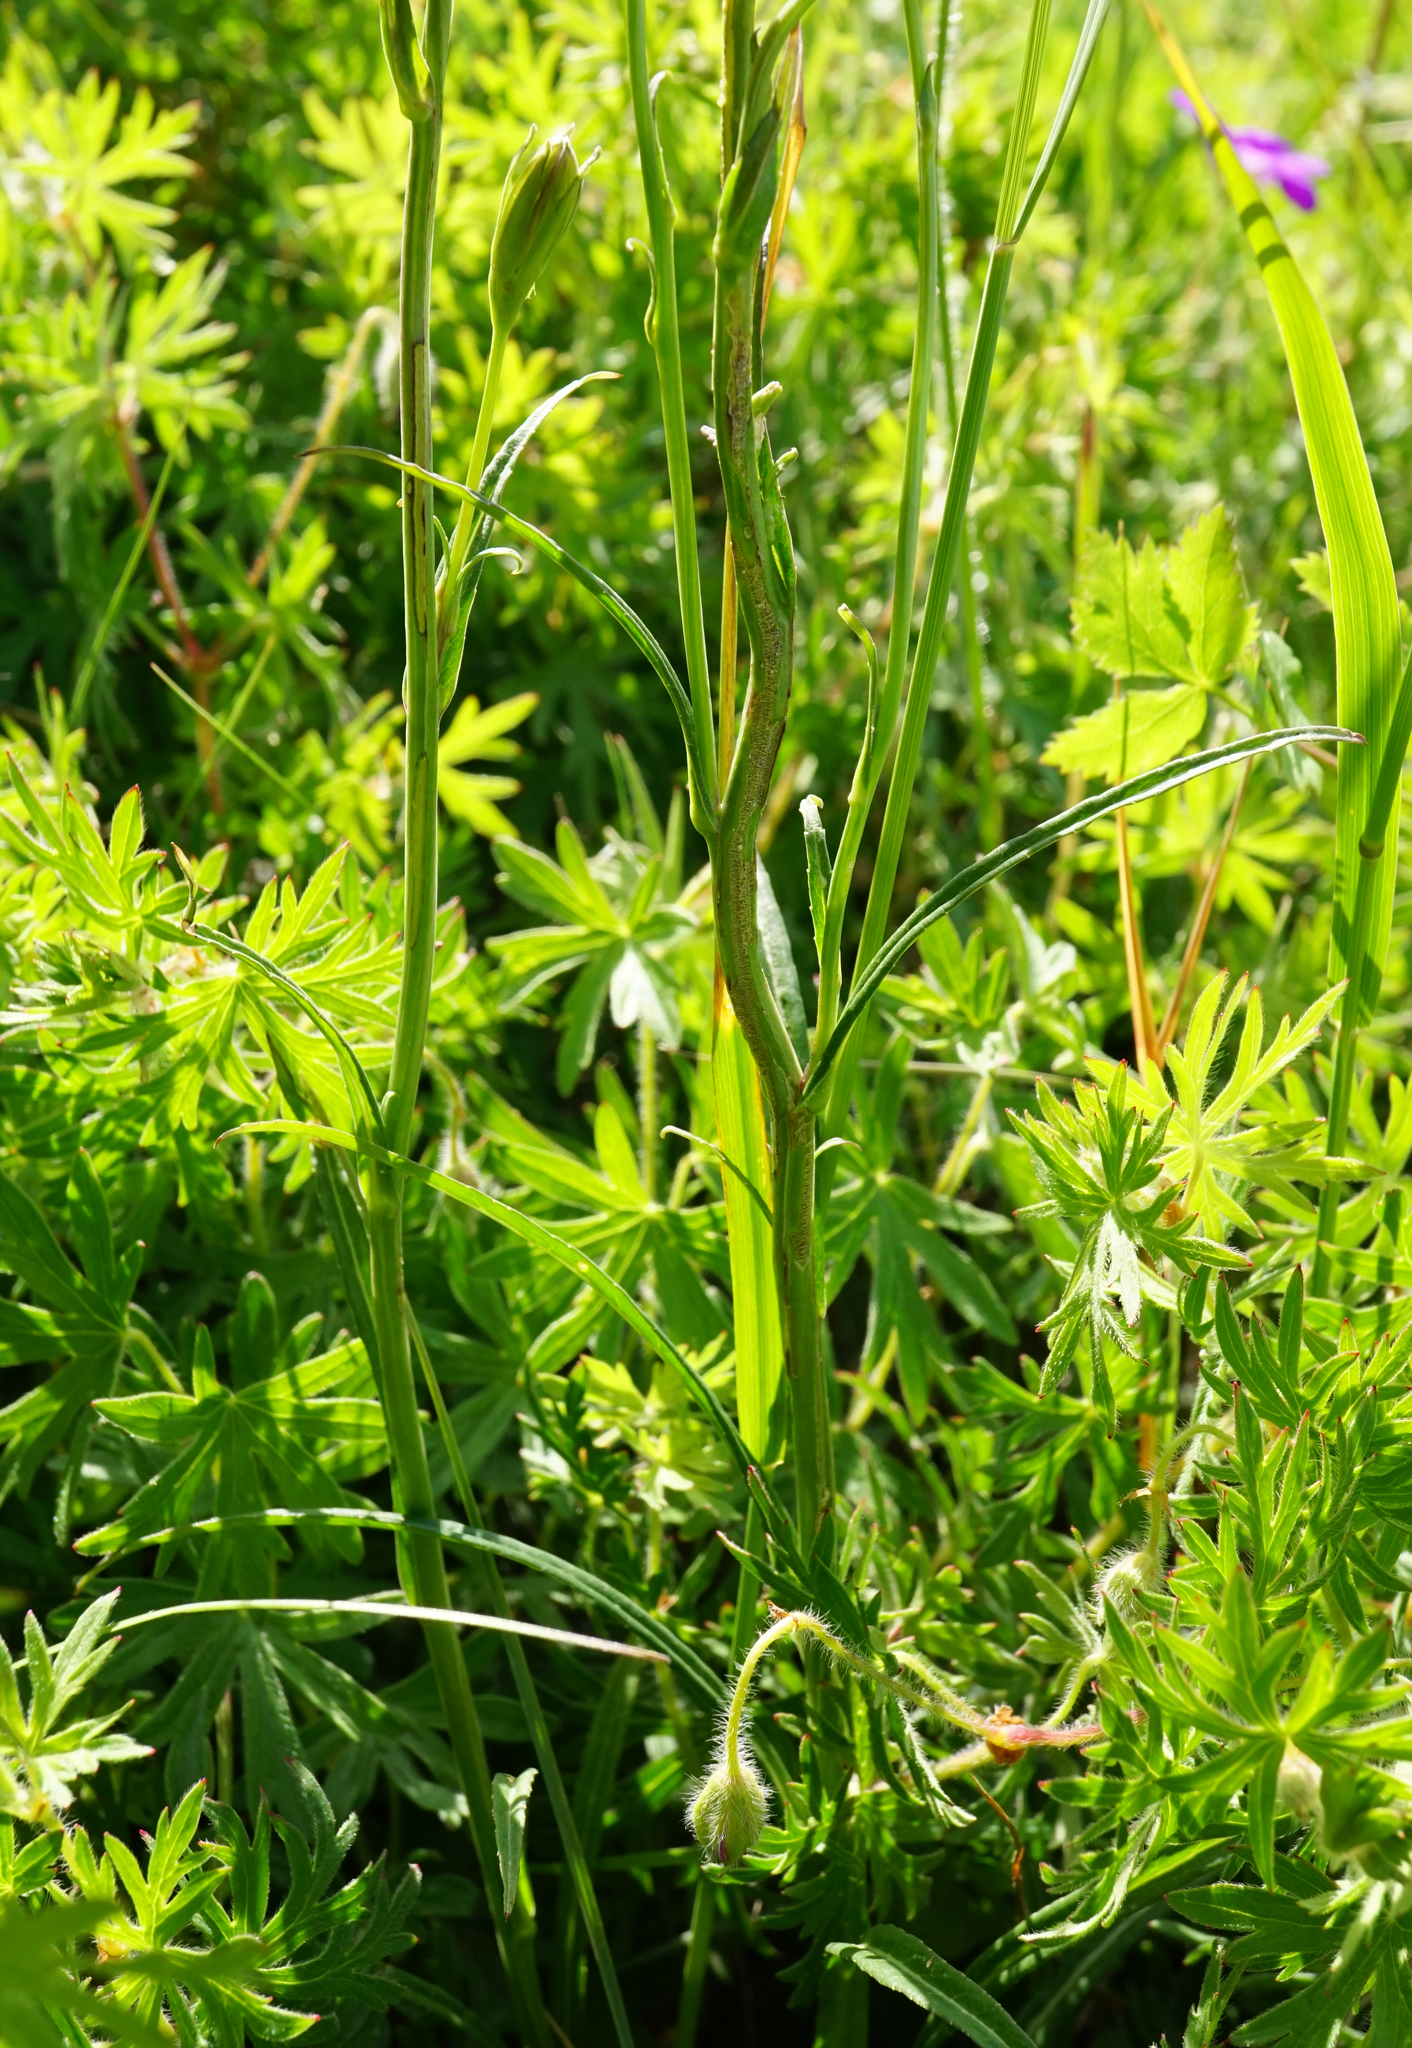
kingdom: Plantae
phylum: Tracheophyta
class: Magnoliopsida
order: Asterales
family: Campanulaceae
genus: Campanula
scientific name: Campanula persicifolia
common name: Peach-leaved bellflower
